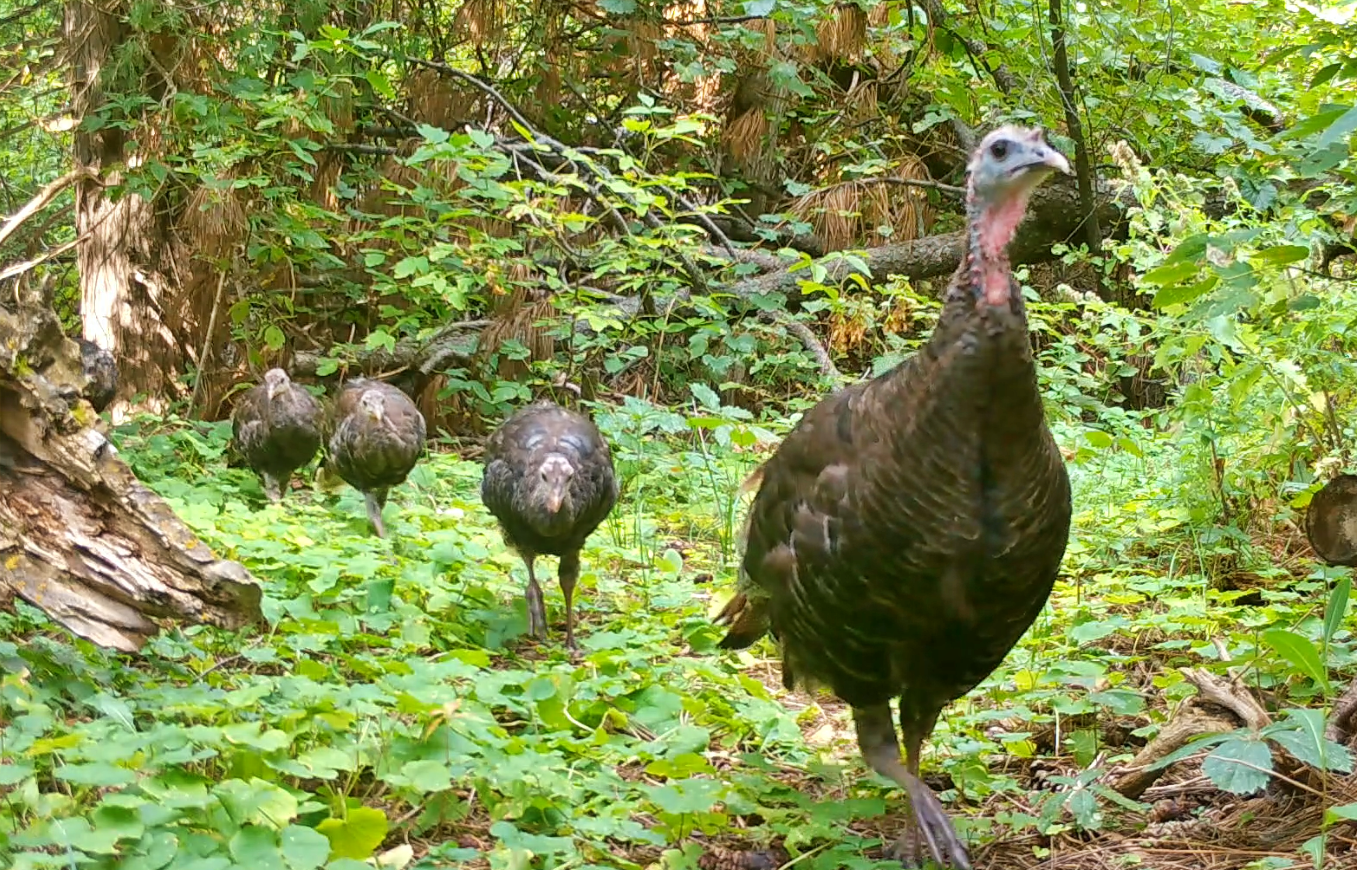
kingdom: Animalia
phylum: Chordata
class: Aves
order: Galliformes
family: Phasianidae
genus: Meleagris
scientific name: Meleagris gallopavo
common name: Wild turkey
